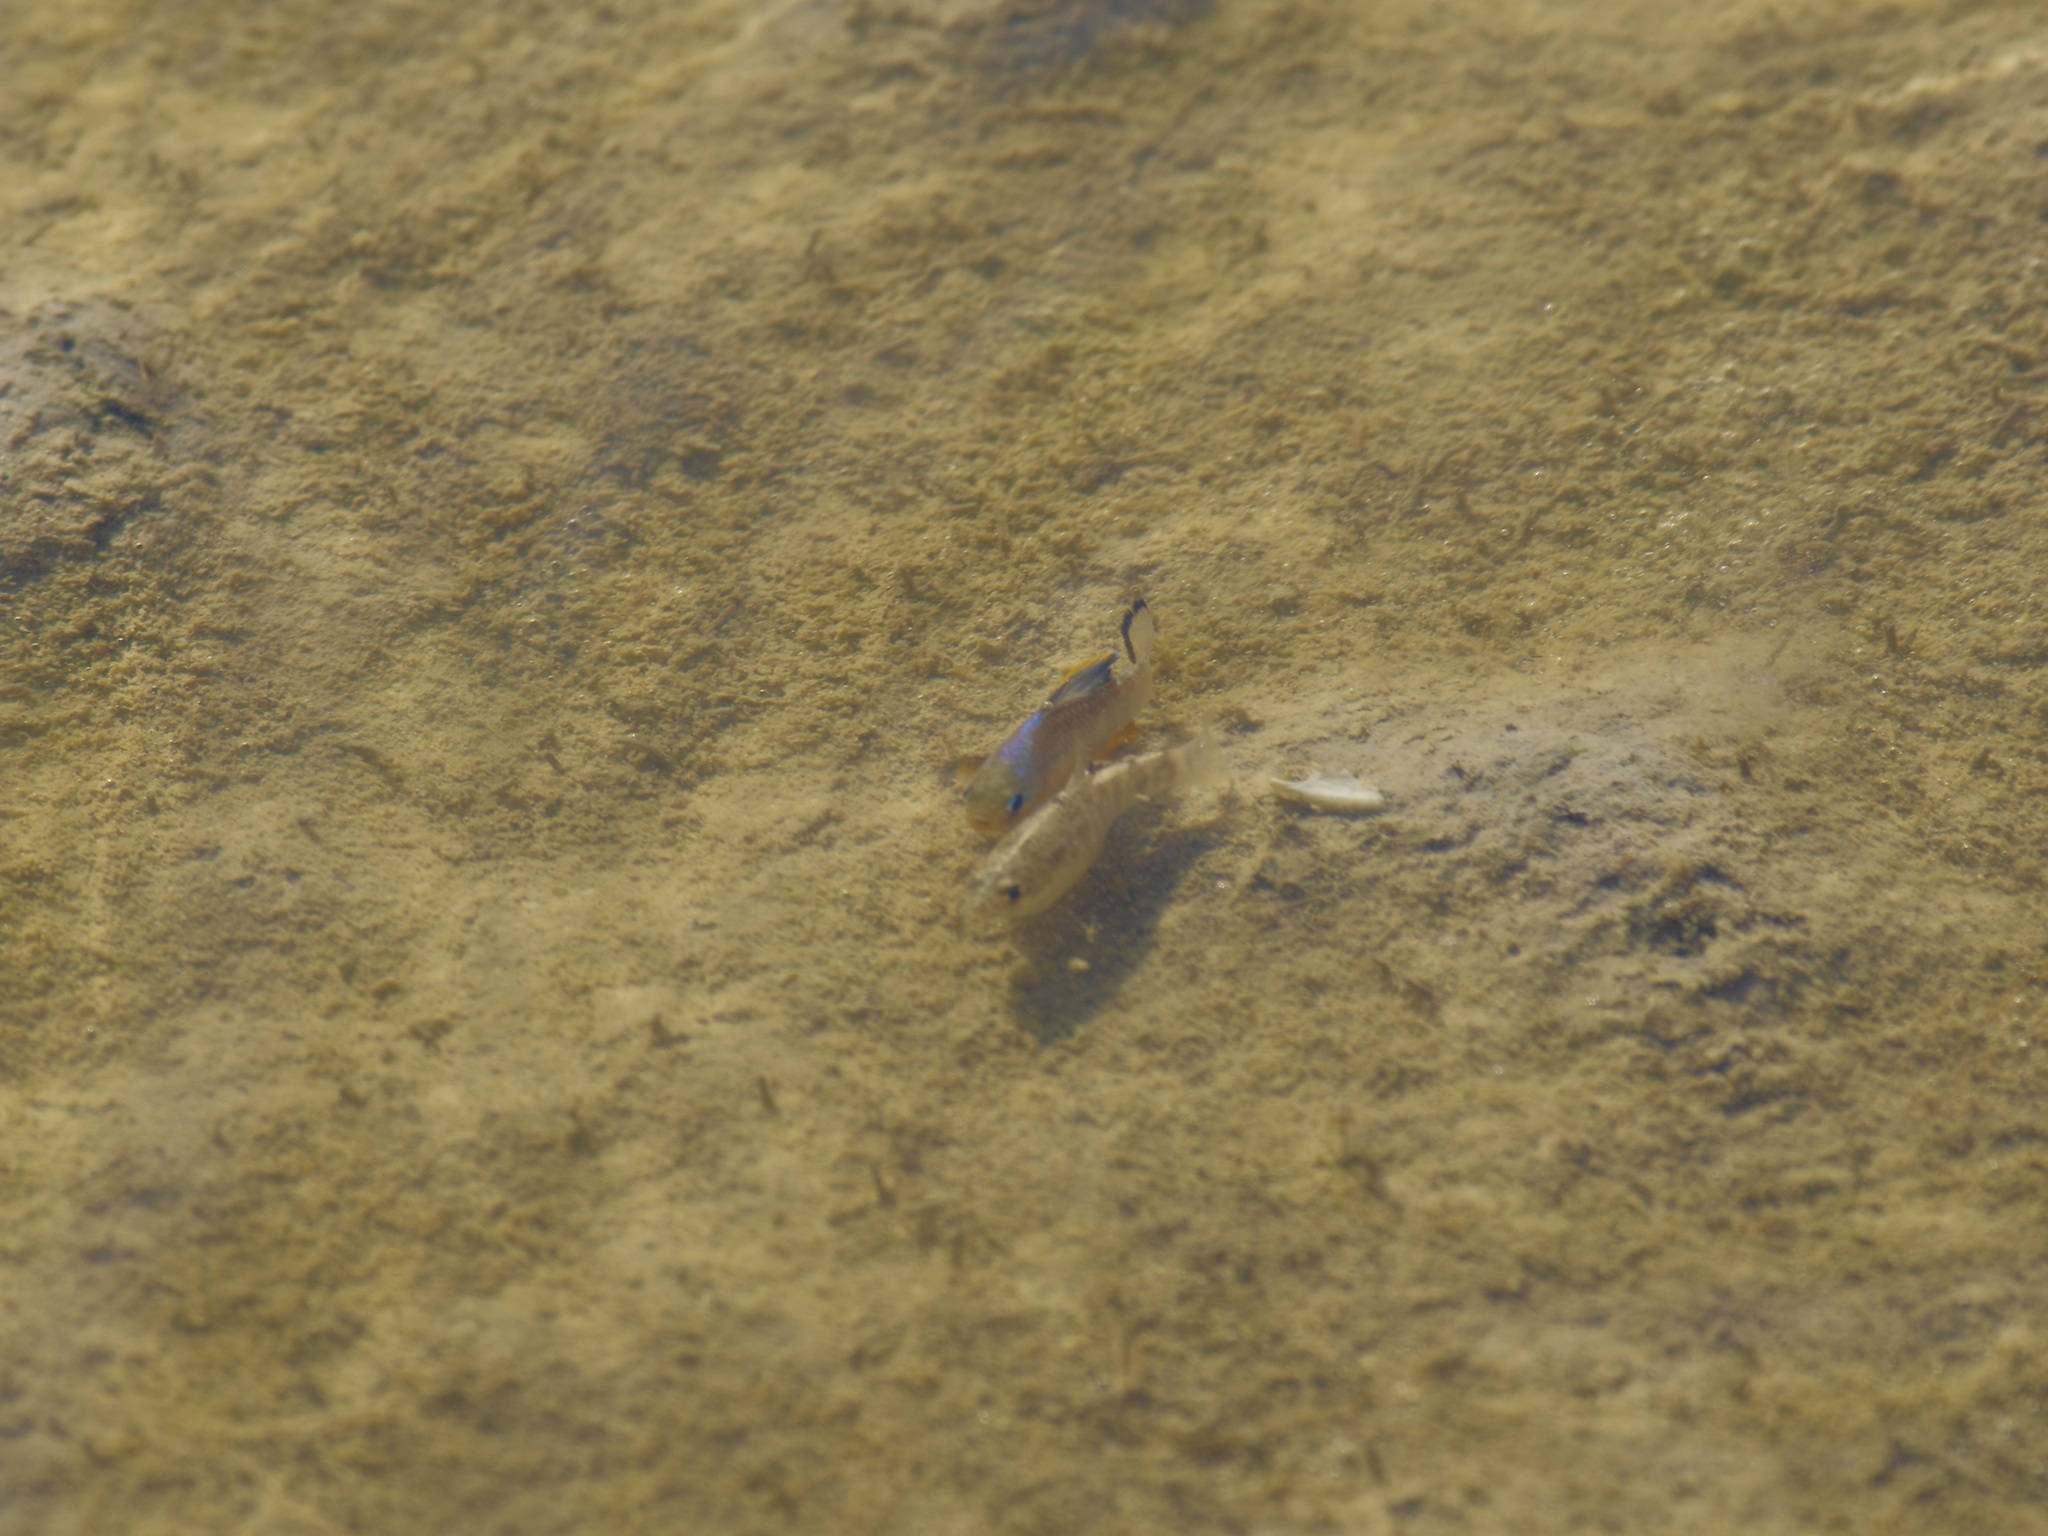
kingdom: Animalia
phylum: Chordata
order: Cyprinodontiformes
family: Cyprinodontidae
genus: Cyprinodon
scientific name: Cyprinodon variegatus
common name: Sheepshead minnow
